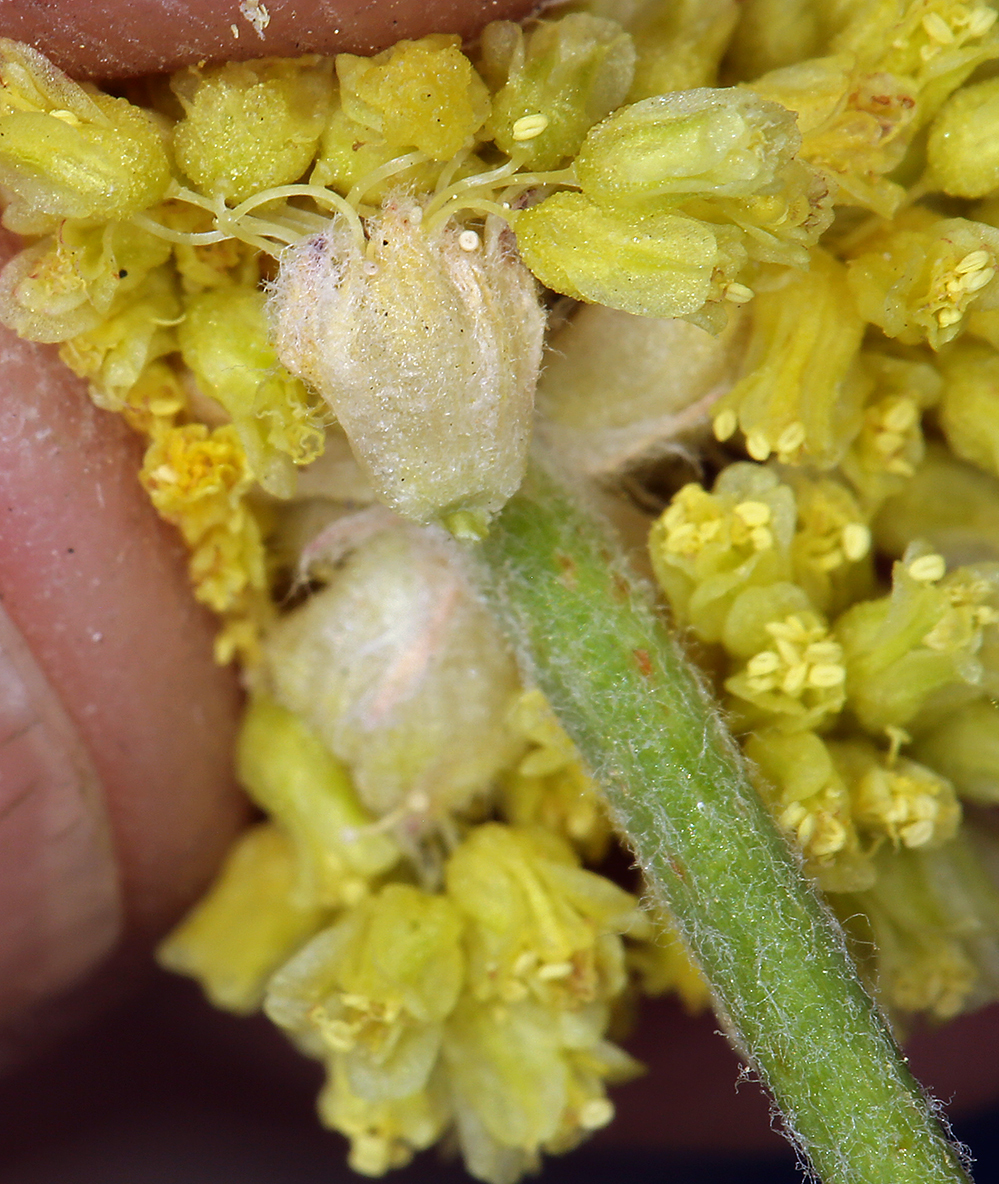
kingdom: Plantae
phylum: Tracheophyta
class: Magnoliopsida
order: Caryophyllales
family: Polygonaceae
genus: Eriogonum
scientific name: Eriogonum alexanderae
